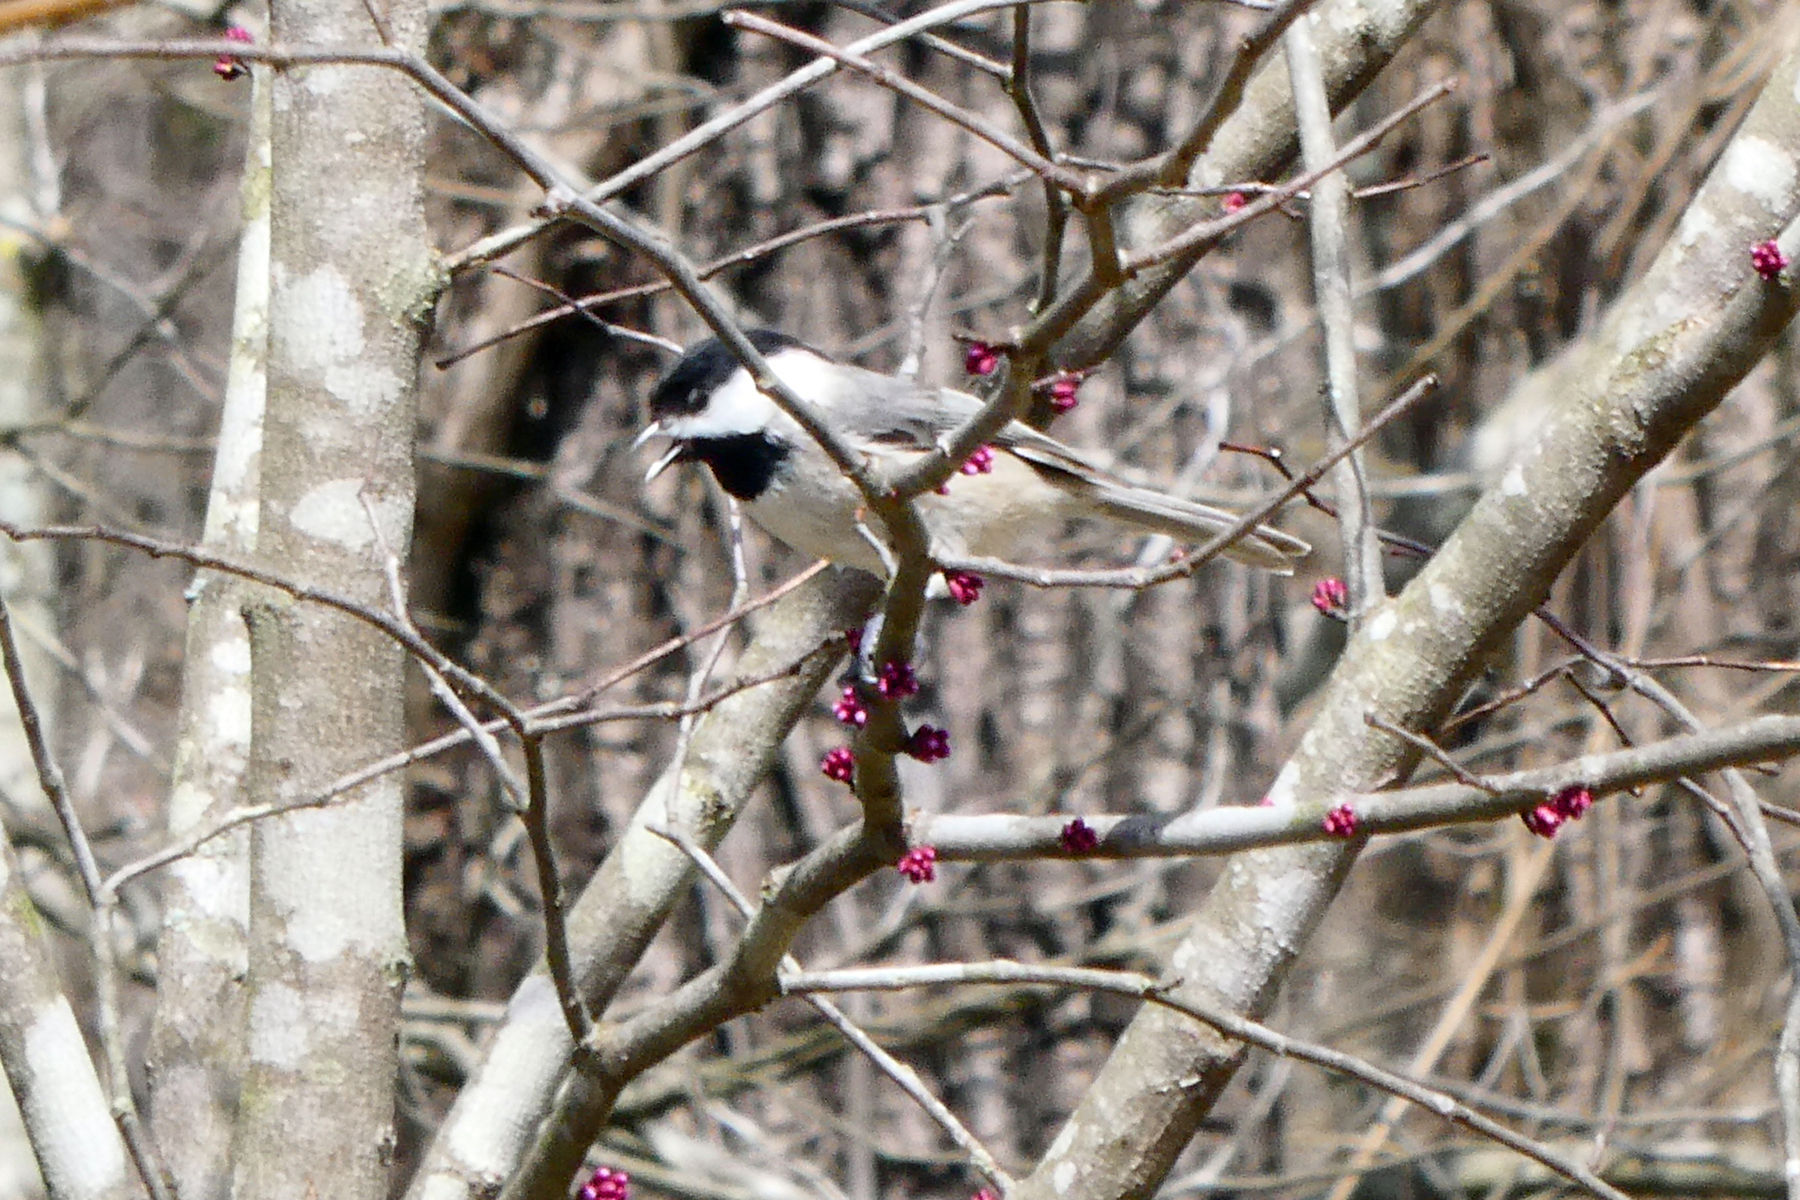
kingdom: Animalia
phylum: Chordata
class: Aves
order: Passeriformes
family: Paridae
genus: Poecile
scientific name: Poecile carolinensis
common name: Carolina chickadee
